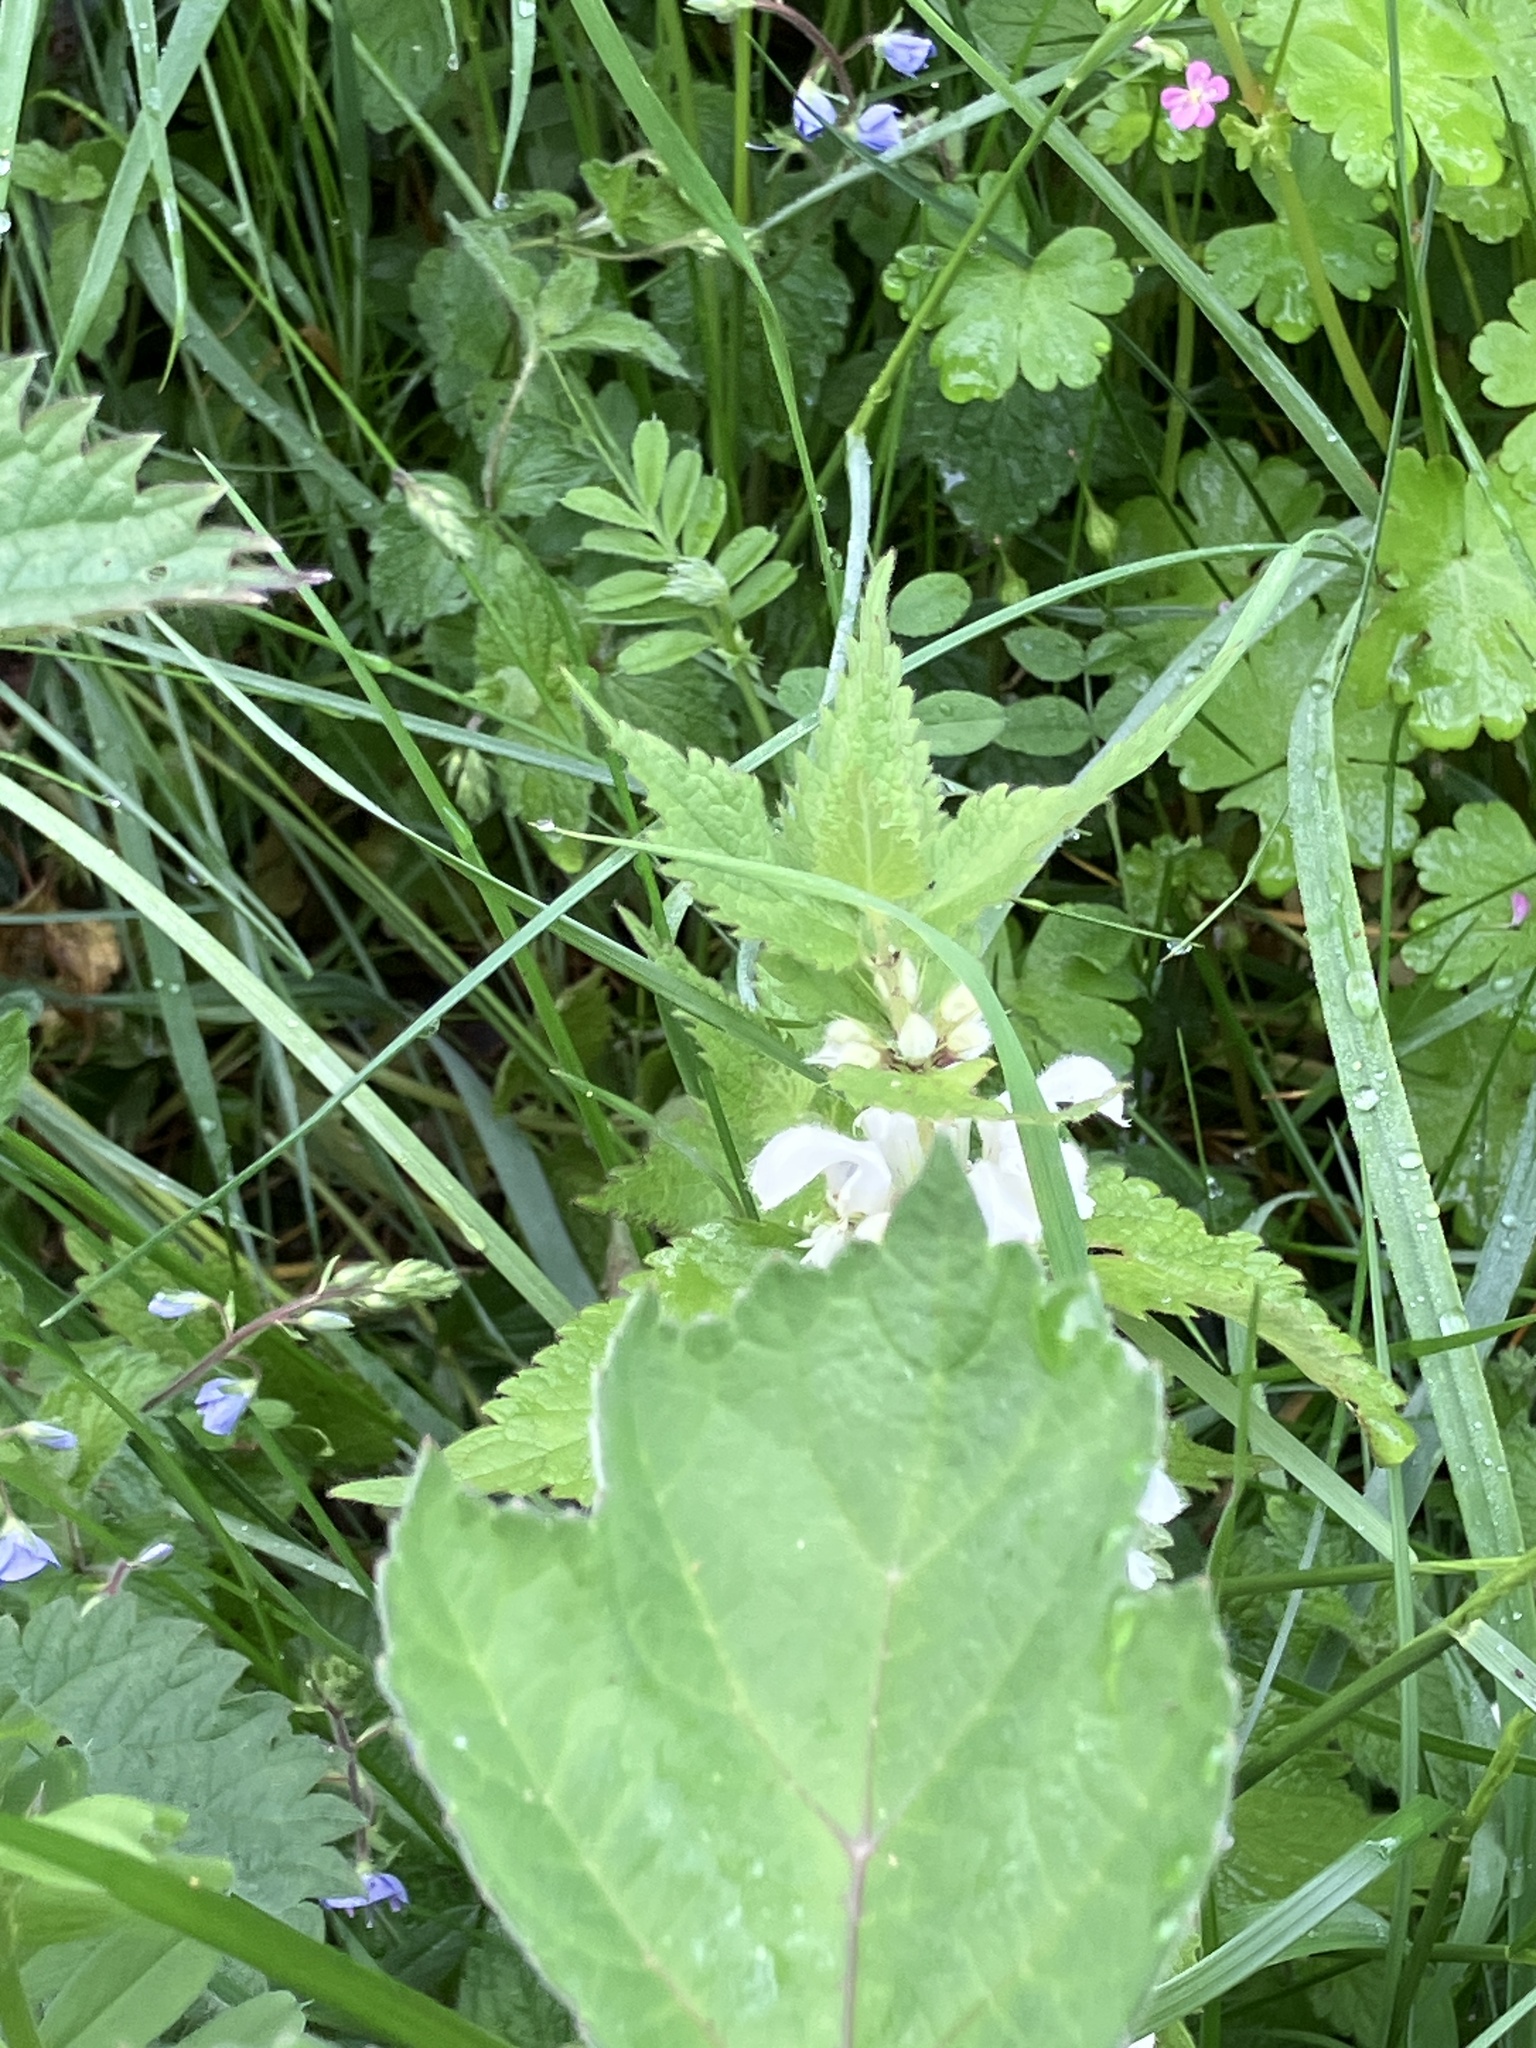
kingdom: Plantae
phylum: Tracheophyta
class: Magnoliopsida
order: Lamiales
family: Lamiaceae
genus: Lamium
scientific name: Lamium album
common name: White dead-nettle
